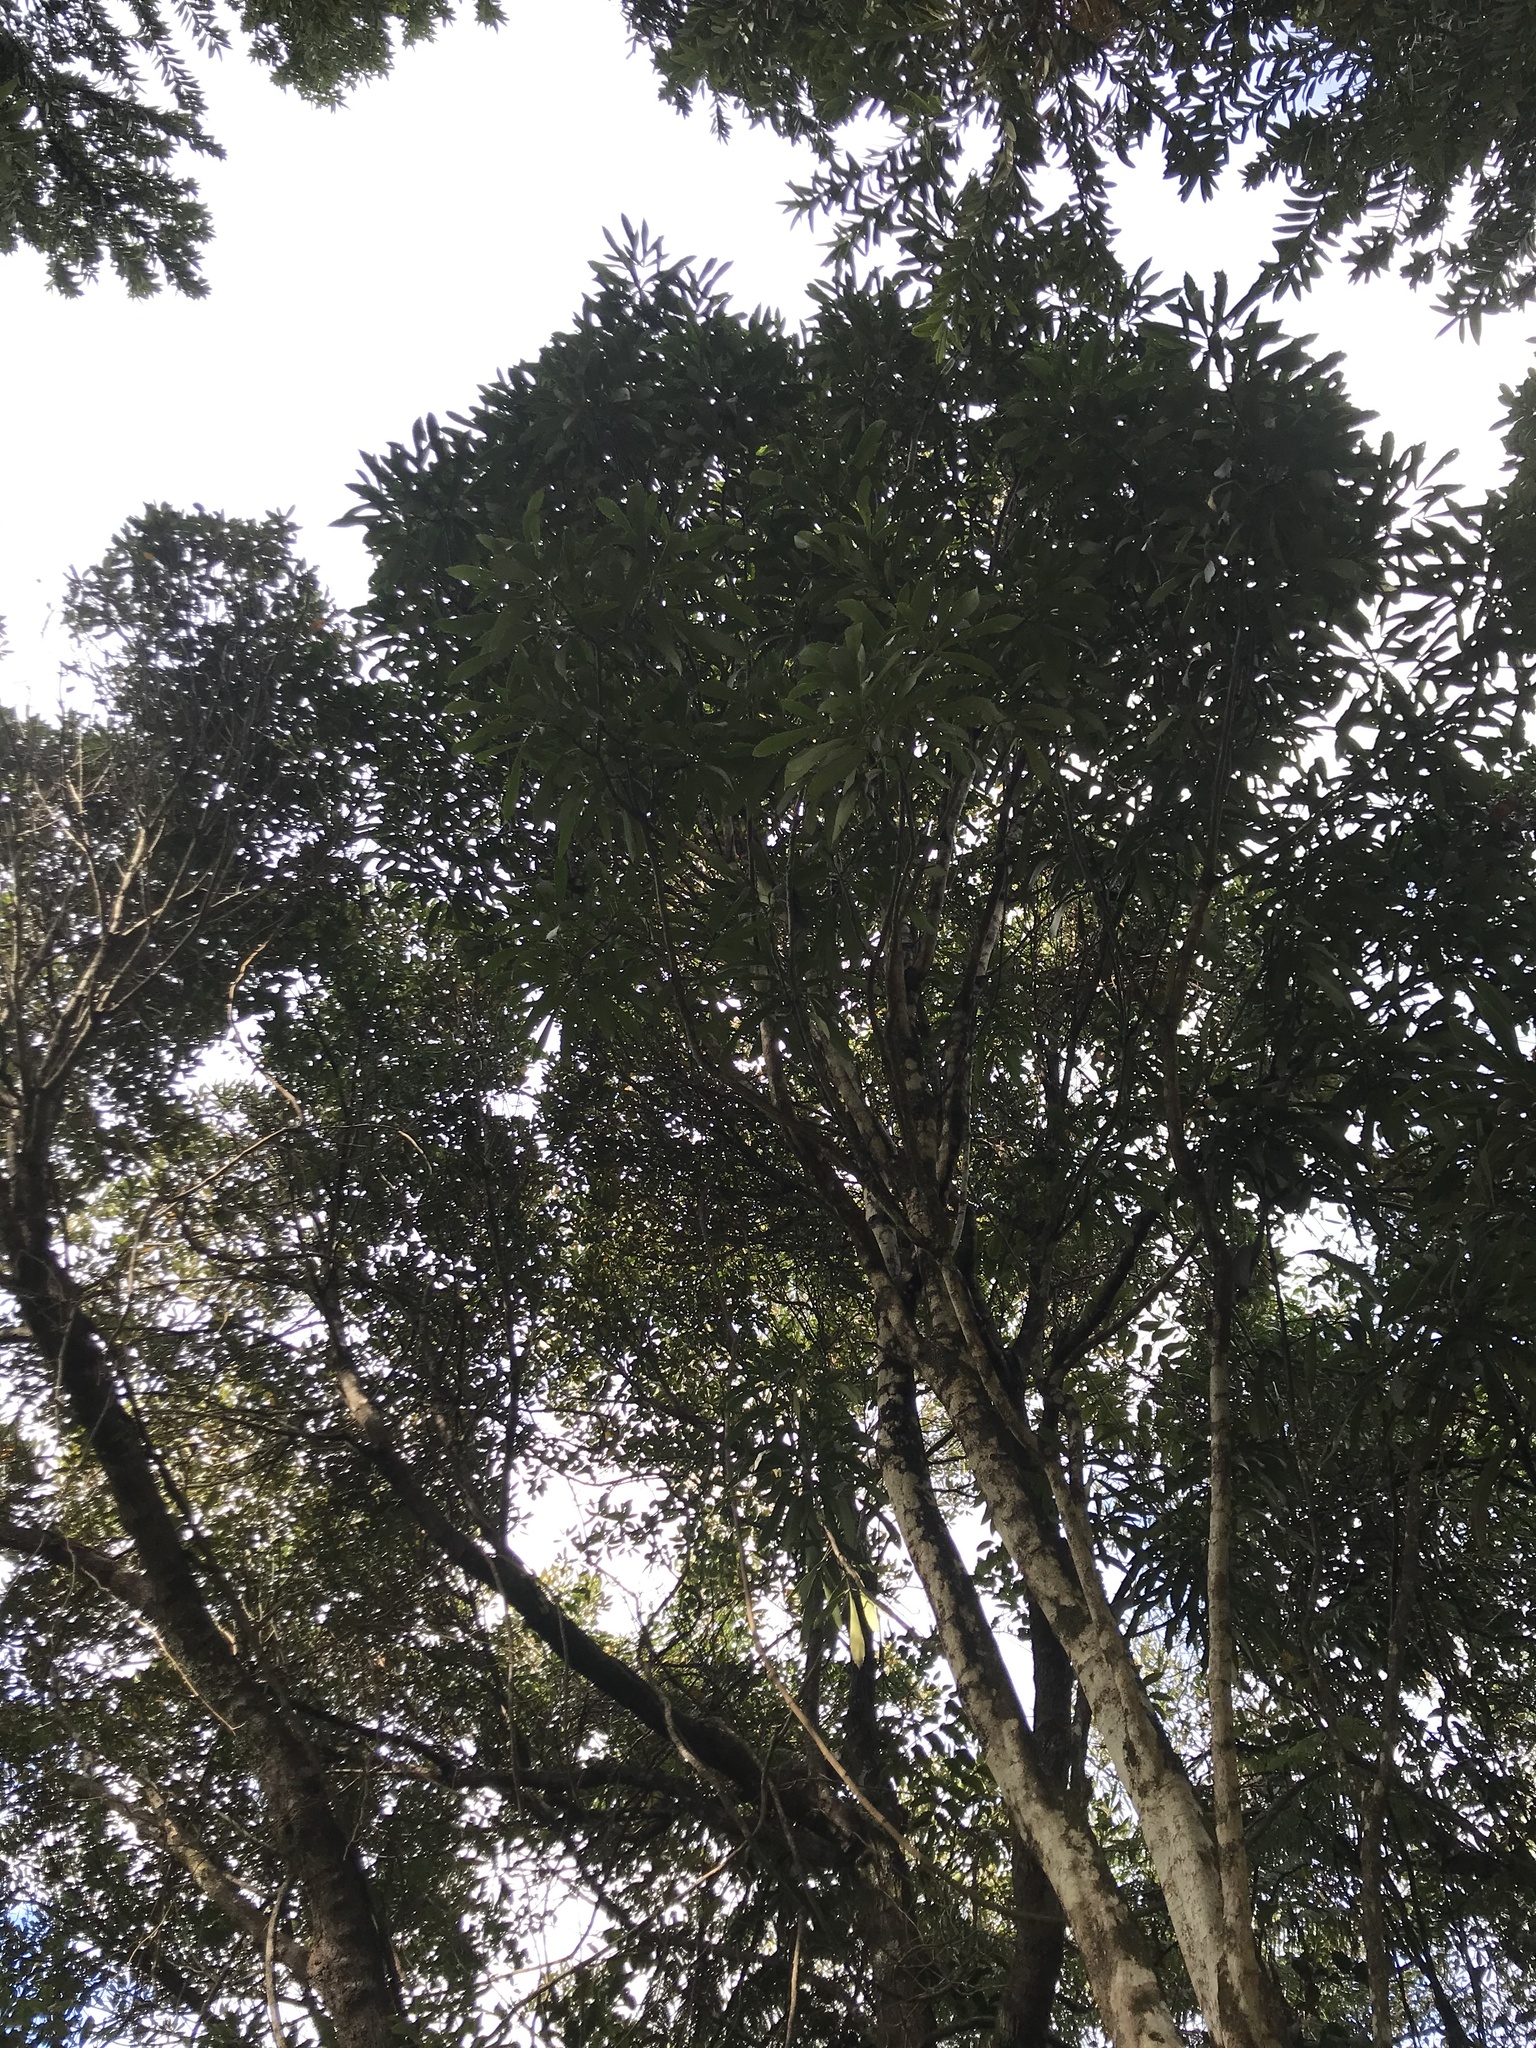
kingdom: Plantae
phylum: Tracheophyta
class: Magnoliopsida
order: Apiales
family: Araliaceae
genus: Pseudopanax
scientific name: Pseudopanax crassifolius
